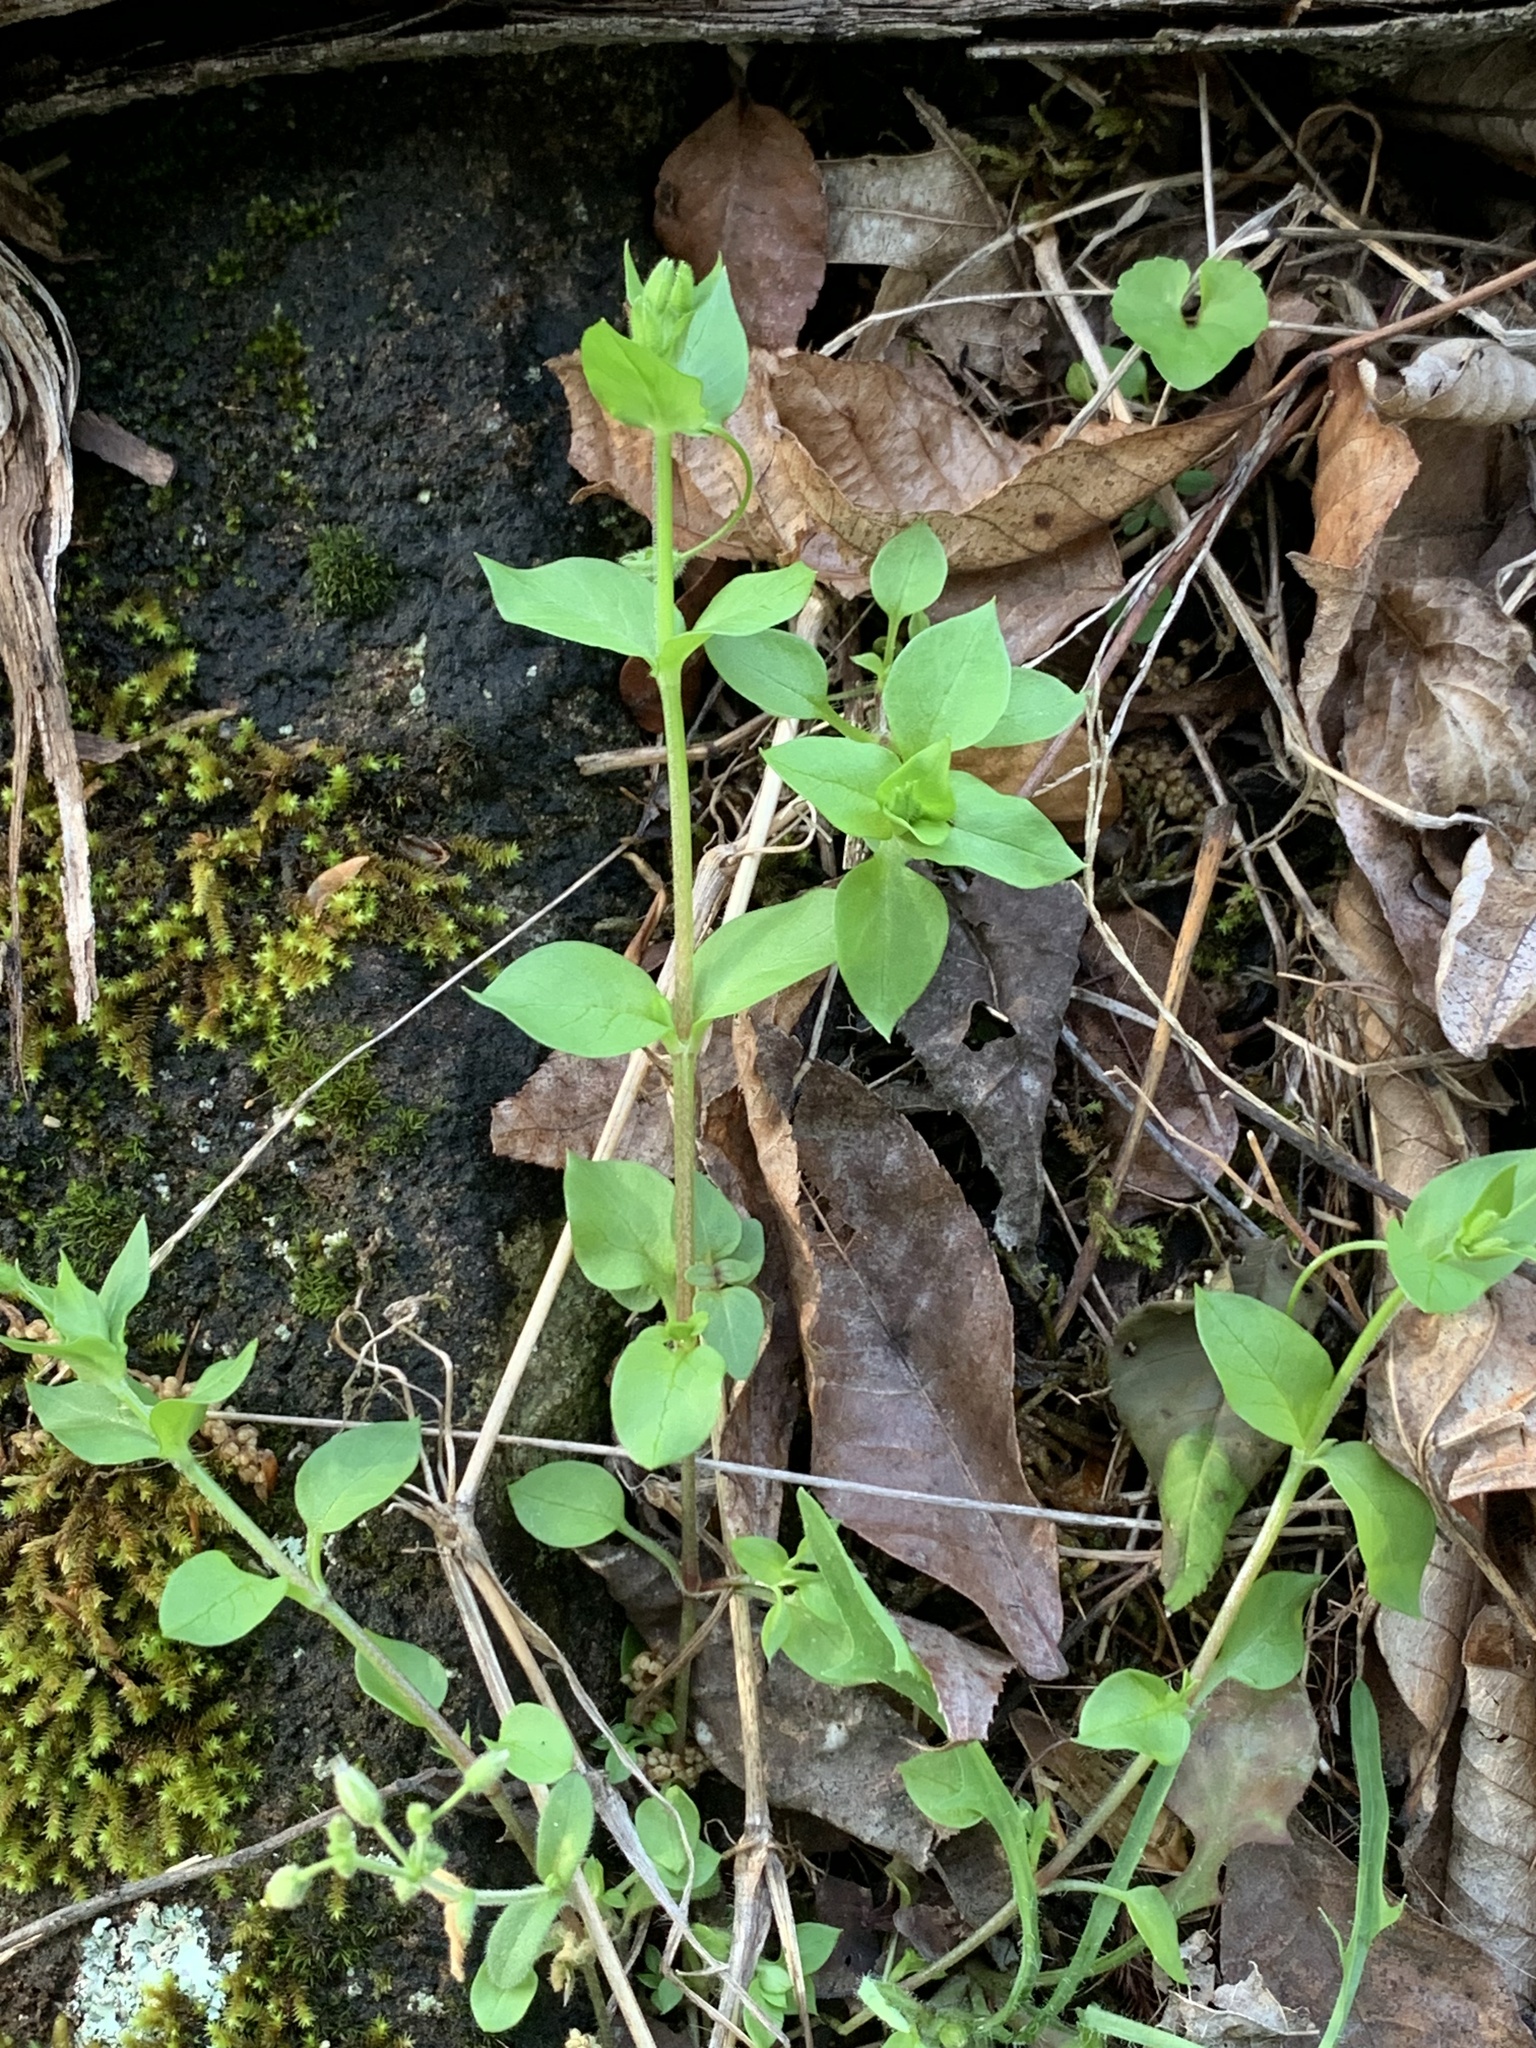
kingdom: Plantae
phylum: Tracheophyta
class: Magnoliopsida
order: Caryophyllales
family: Caryophyllaceae
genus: Stellaria
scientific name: Stellaria media
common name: Common chickweed
